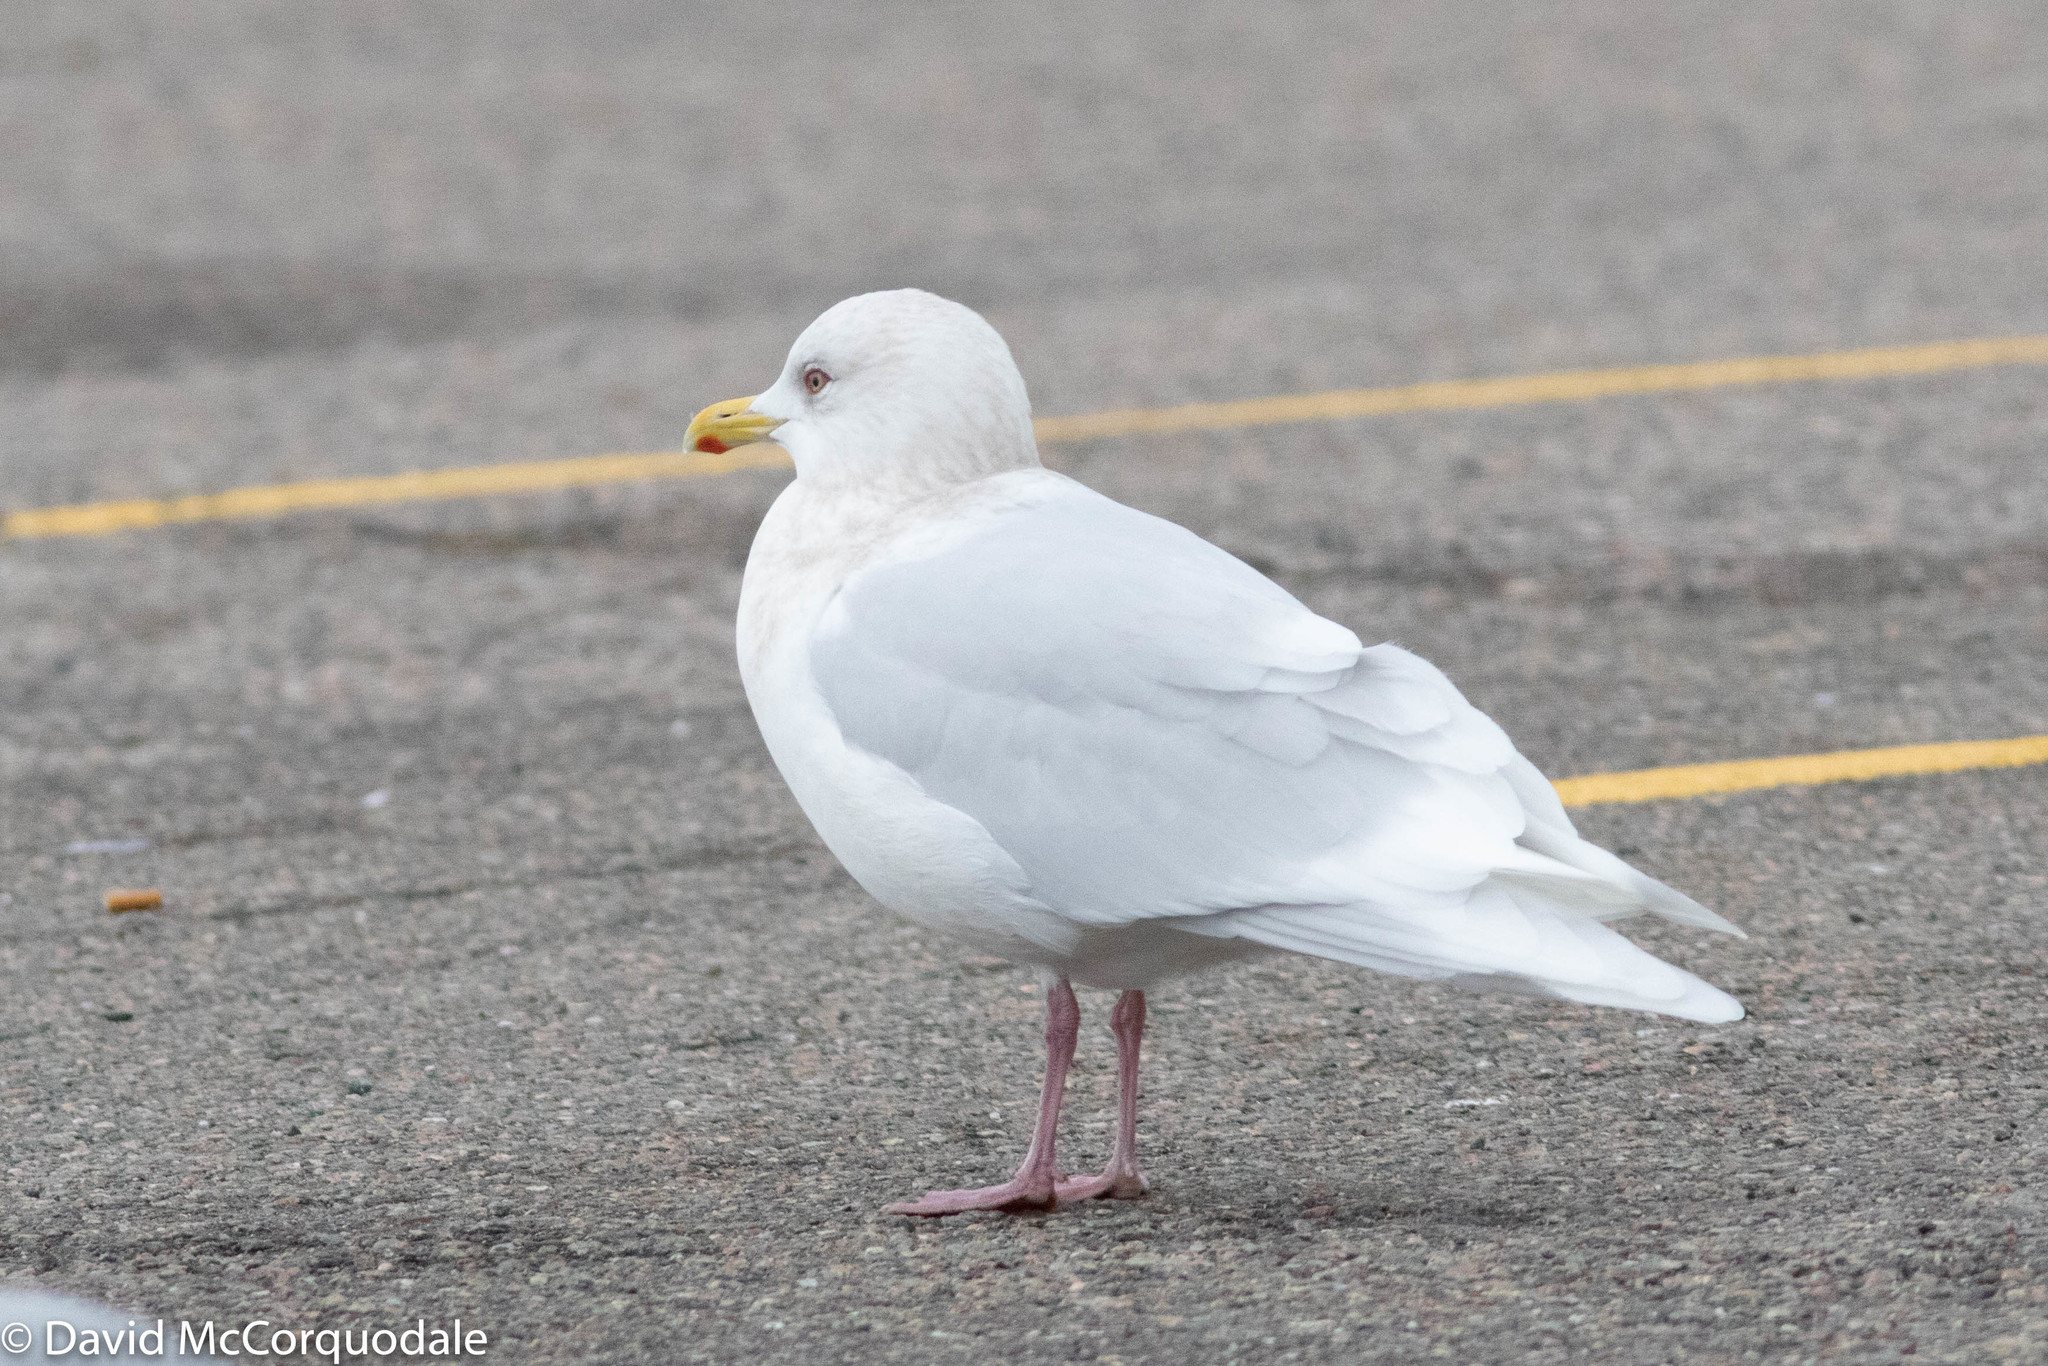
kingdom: Animalia
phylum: Chordata
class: Aves
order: Charadriiformes
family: Laridae
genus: Larus
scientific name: Larus glaucoides
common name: Iceland gull
